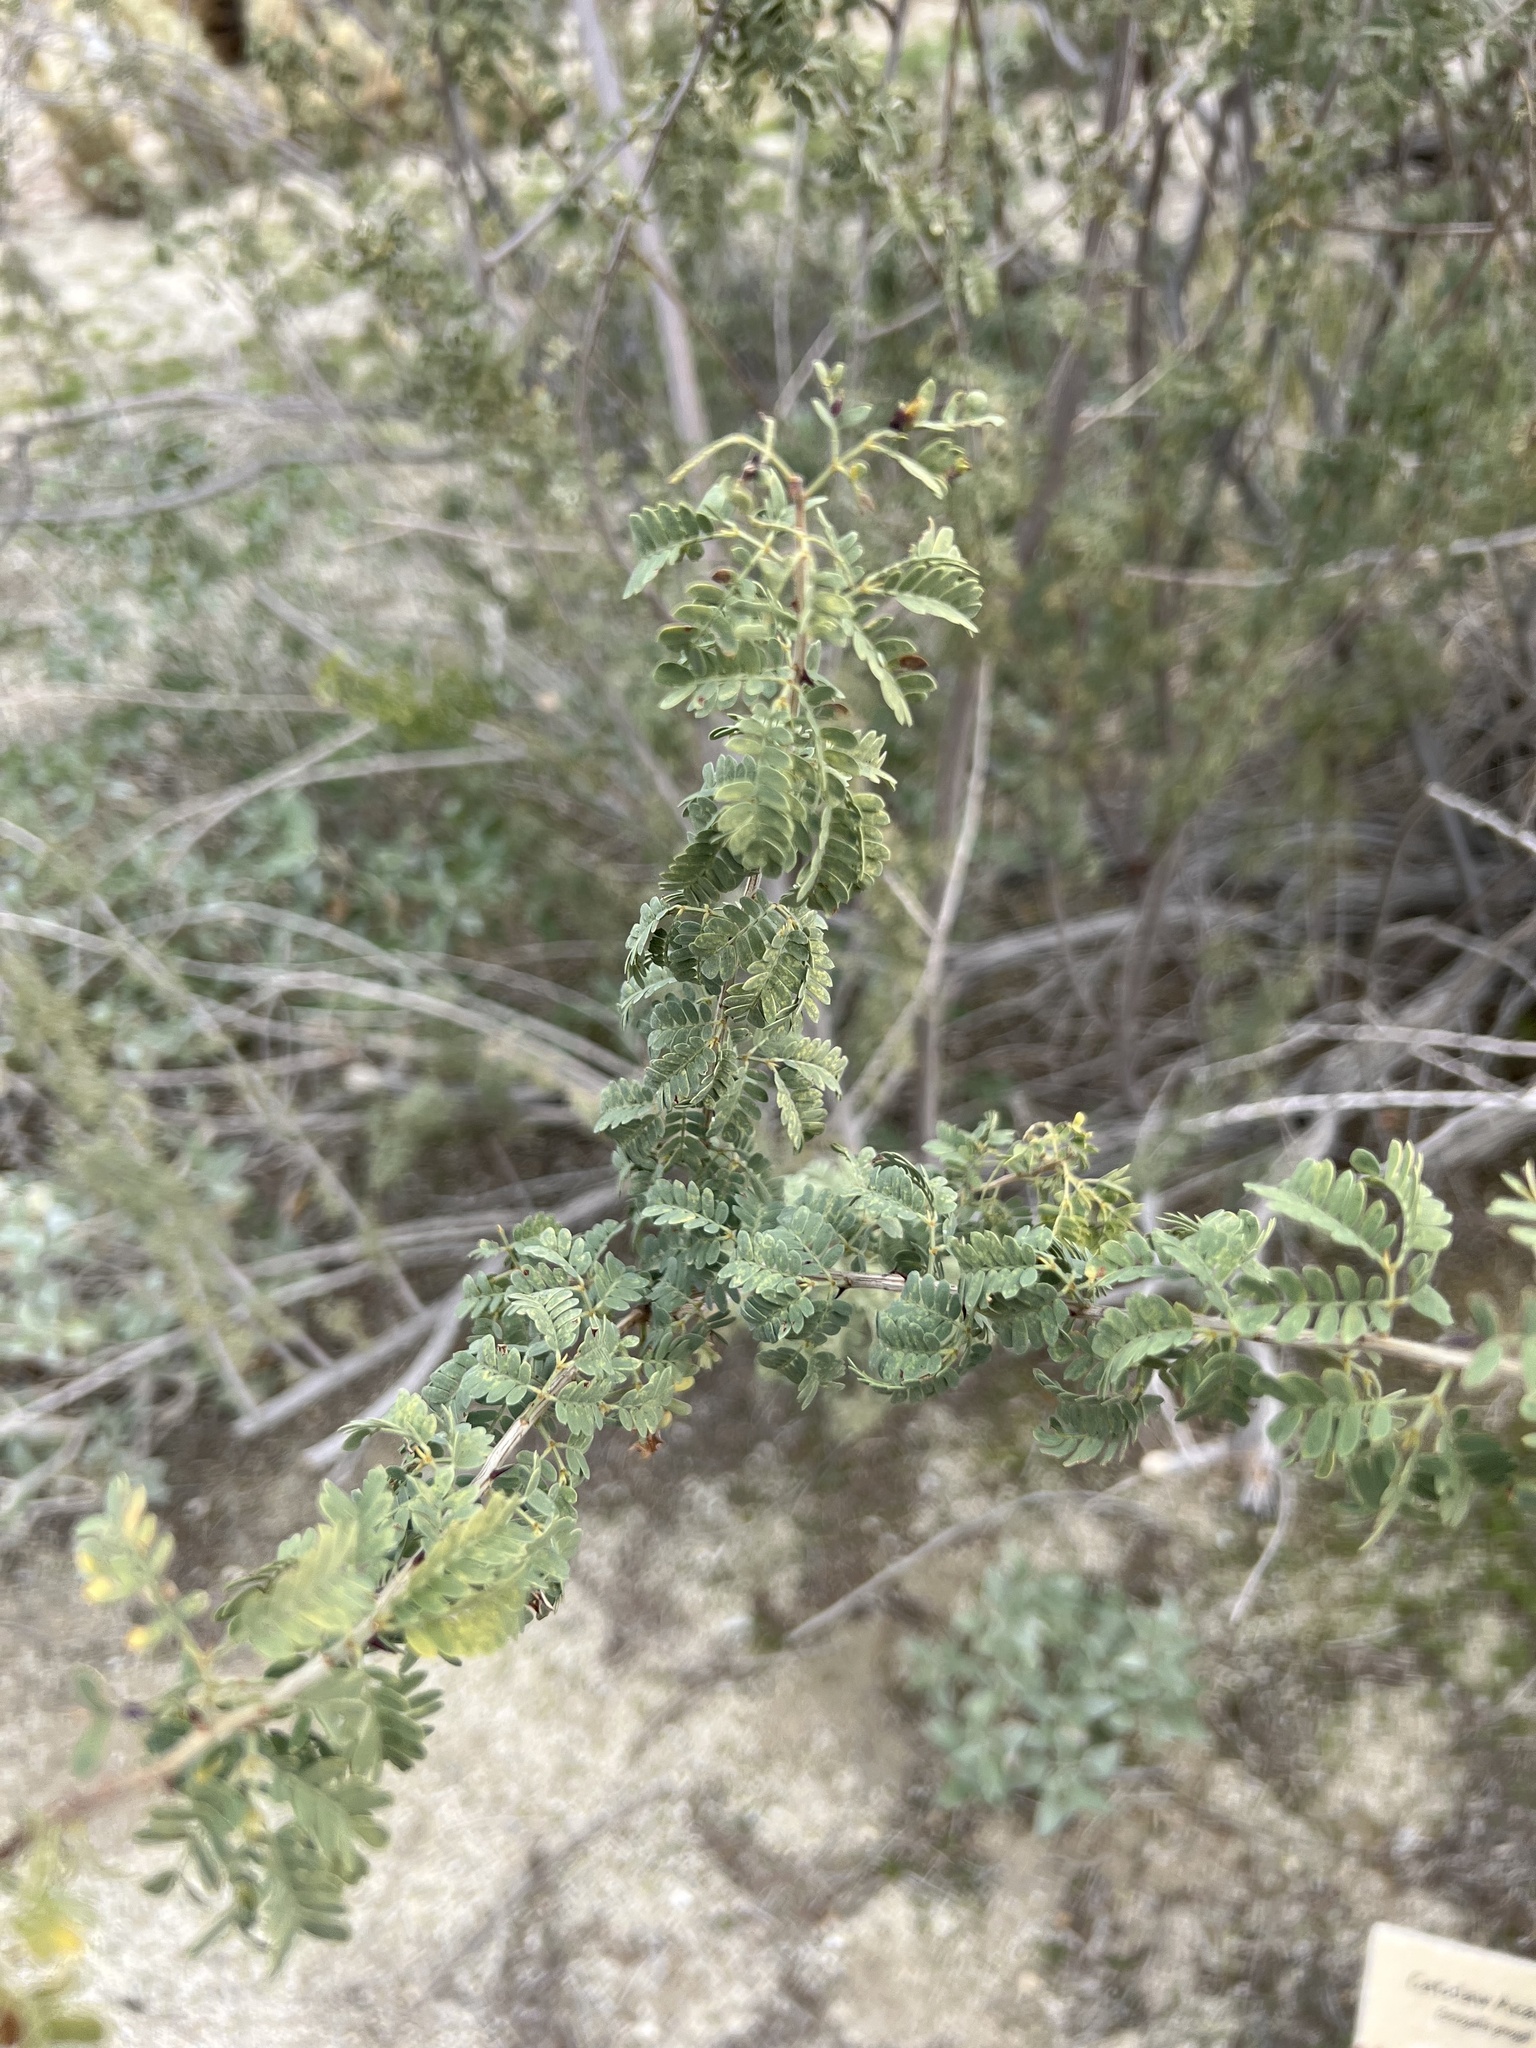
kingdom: Plantae
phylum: Tracheophyta
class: Magnoliopsida
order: Fabales
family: Fabaceae
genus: Senegalia
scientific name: Senegalia greggii
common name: Texas-mimosa
